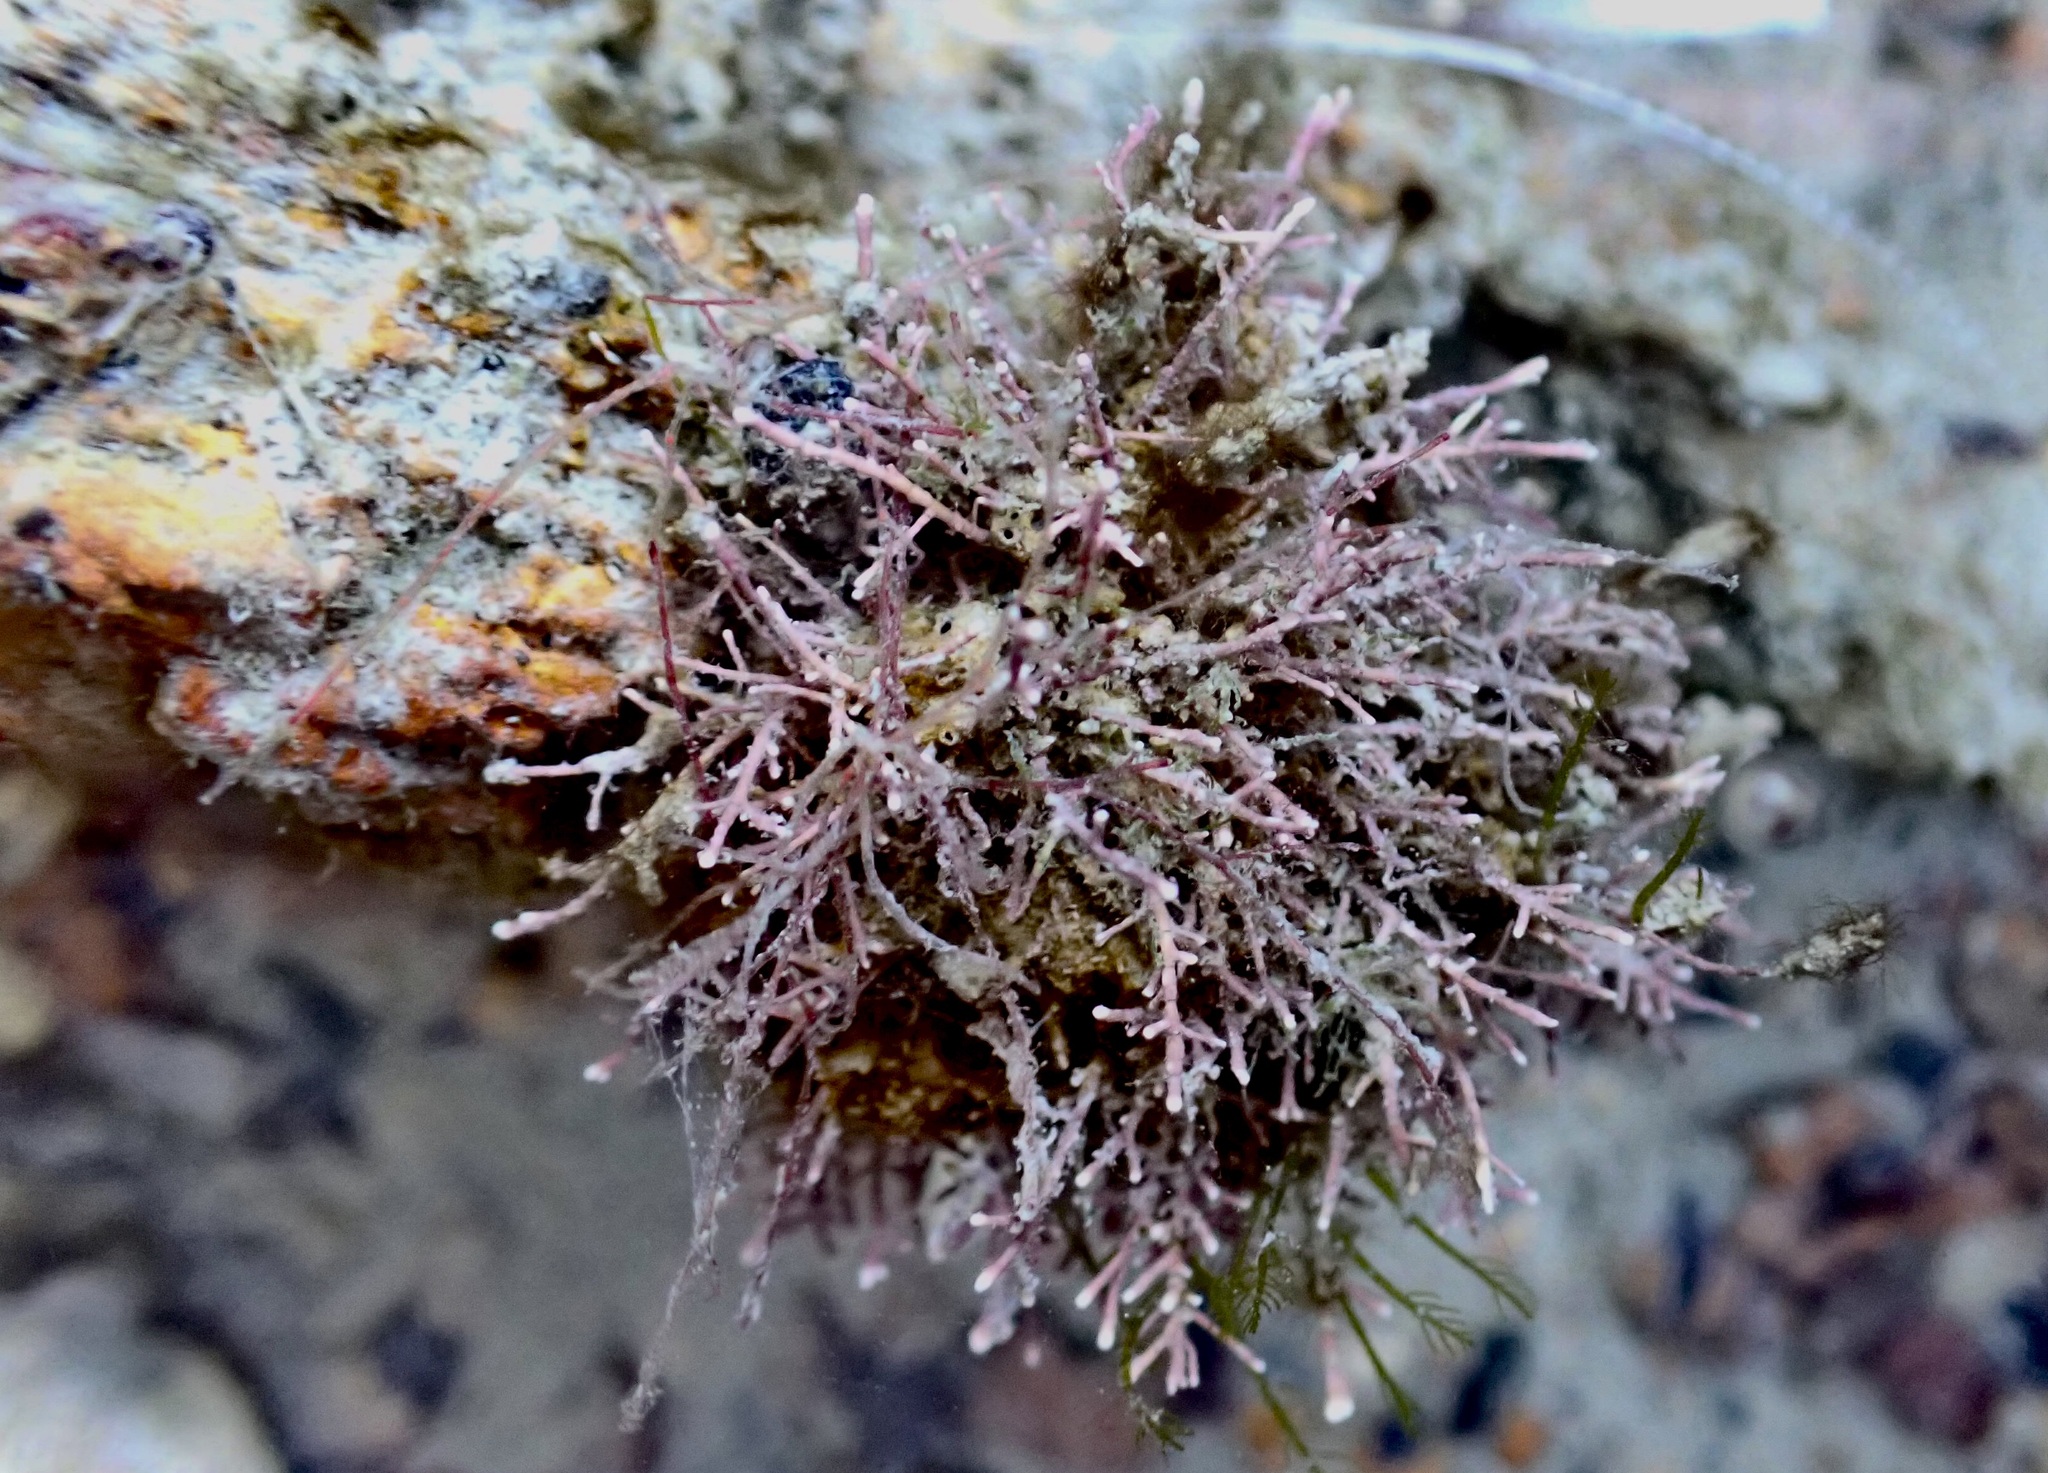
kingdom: Plantae
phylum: Rhodophyta
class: Florideophyceae
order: Corallinales
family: Corallinaceae
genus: Corallina
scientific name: Corallina officinalis
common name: Coral weed
